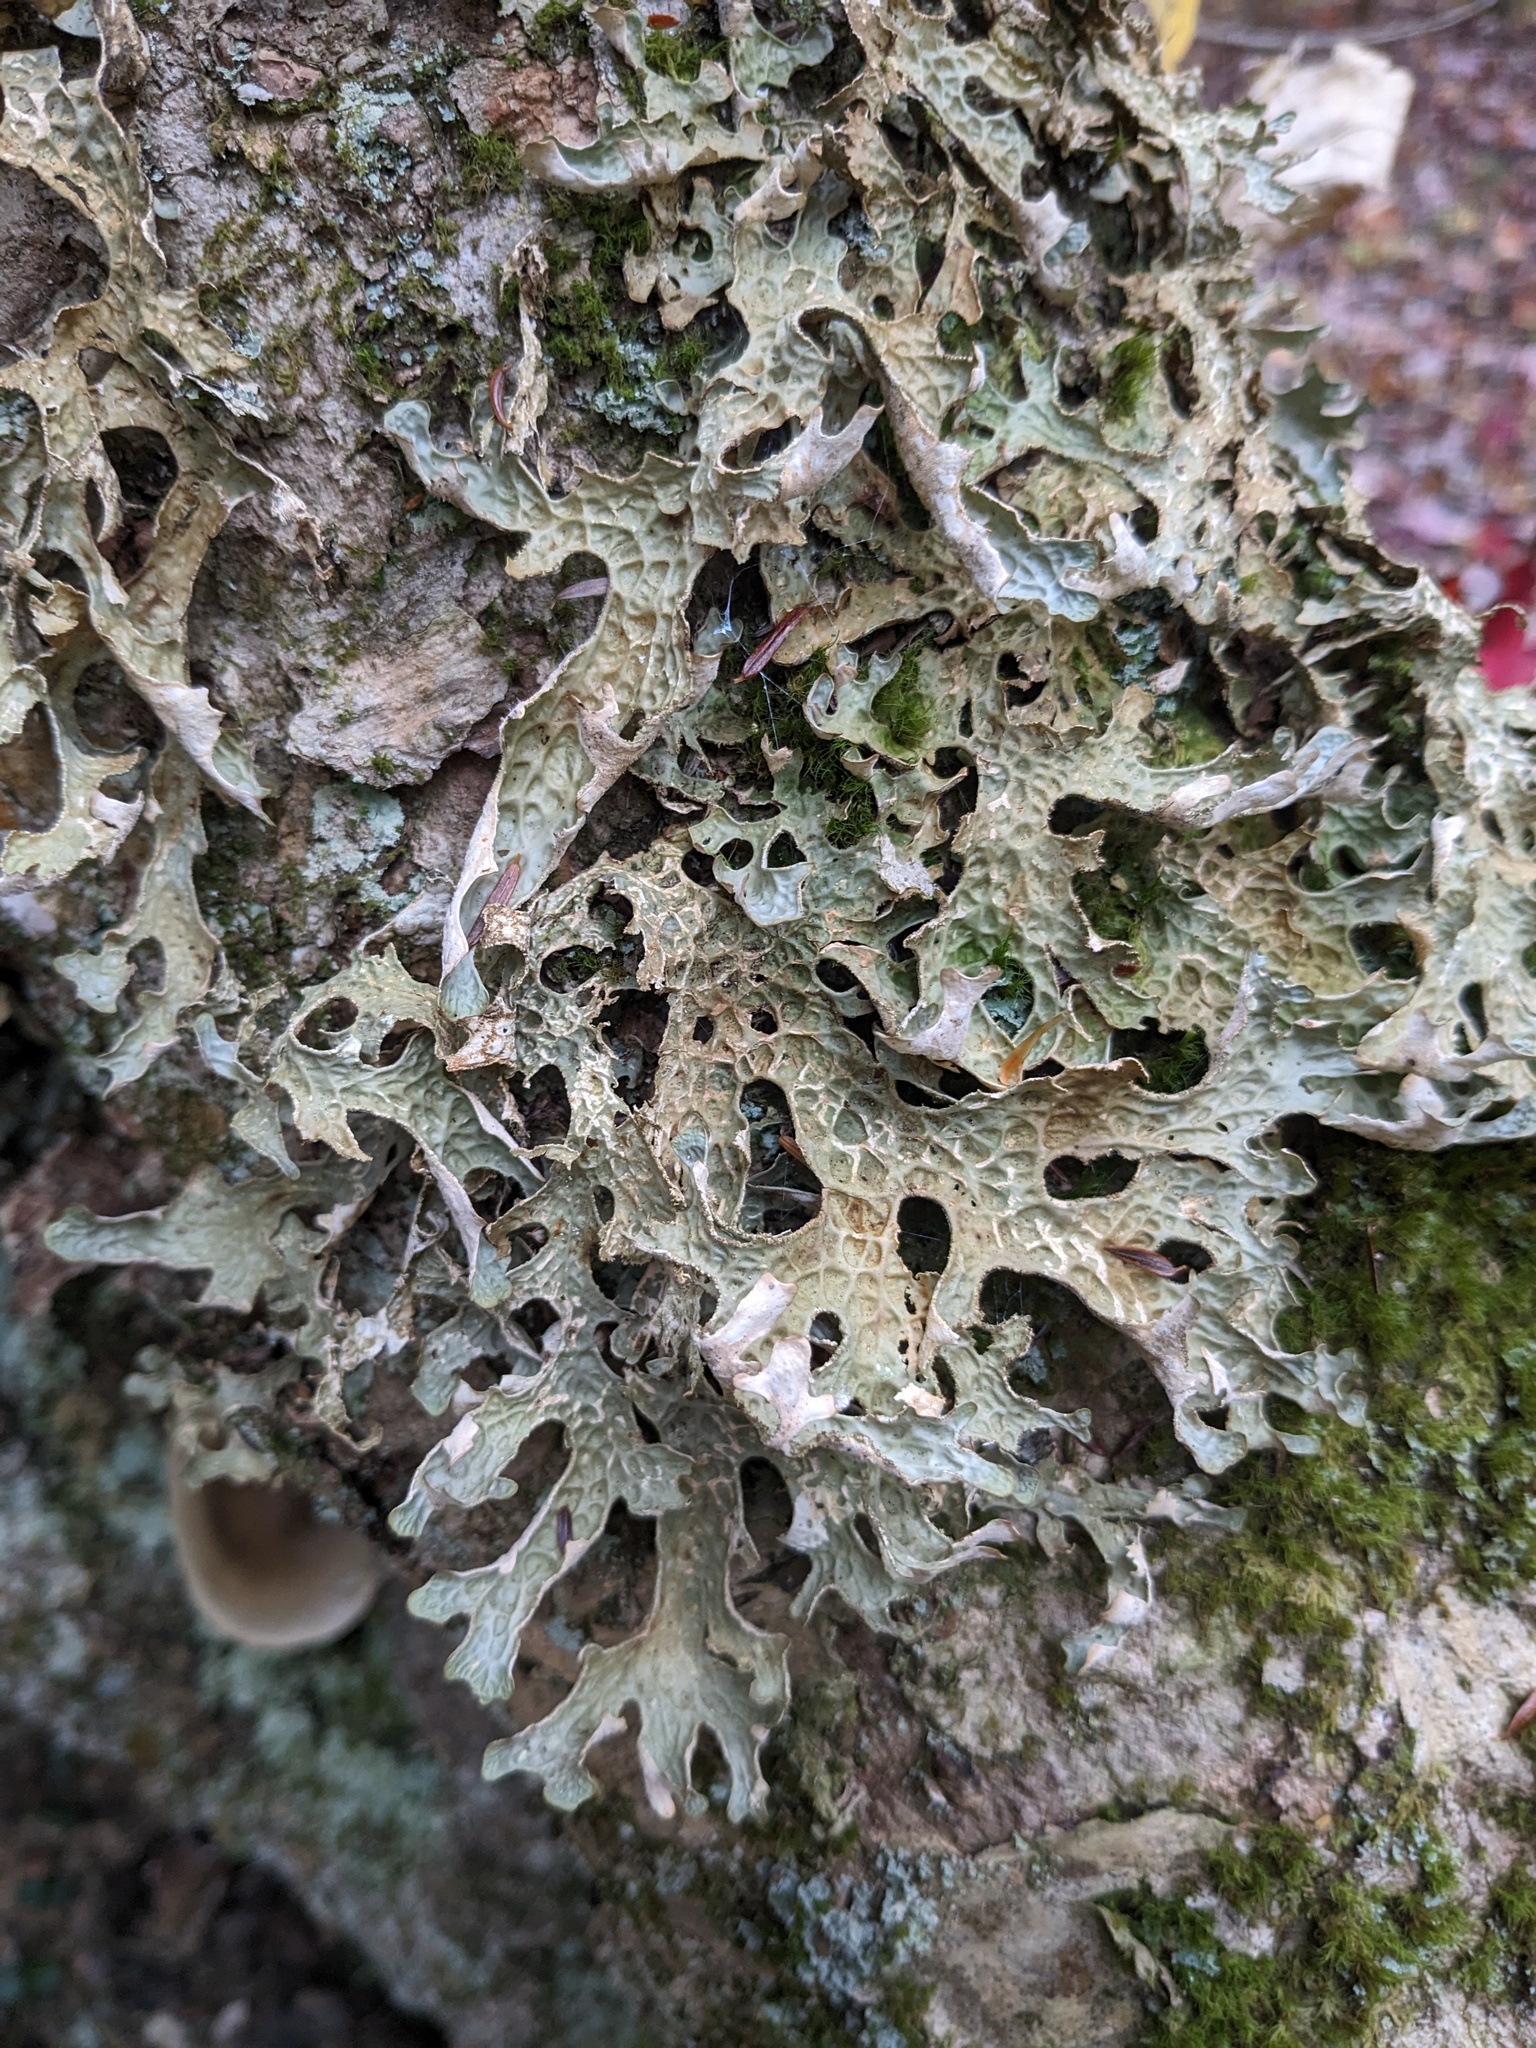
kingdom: Fungi
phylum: Ascomycota
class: Lecanoromycetes
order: Peltigerales
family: Lobariaceae
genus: Lobaria
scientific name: Lobaria pulmonaria
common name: Lungwort
